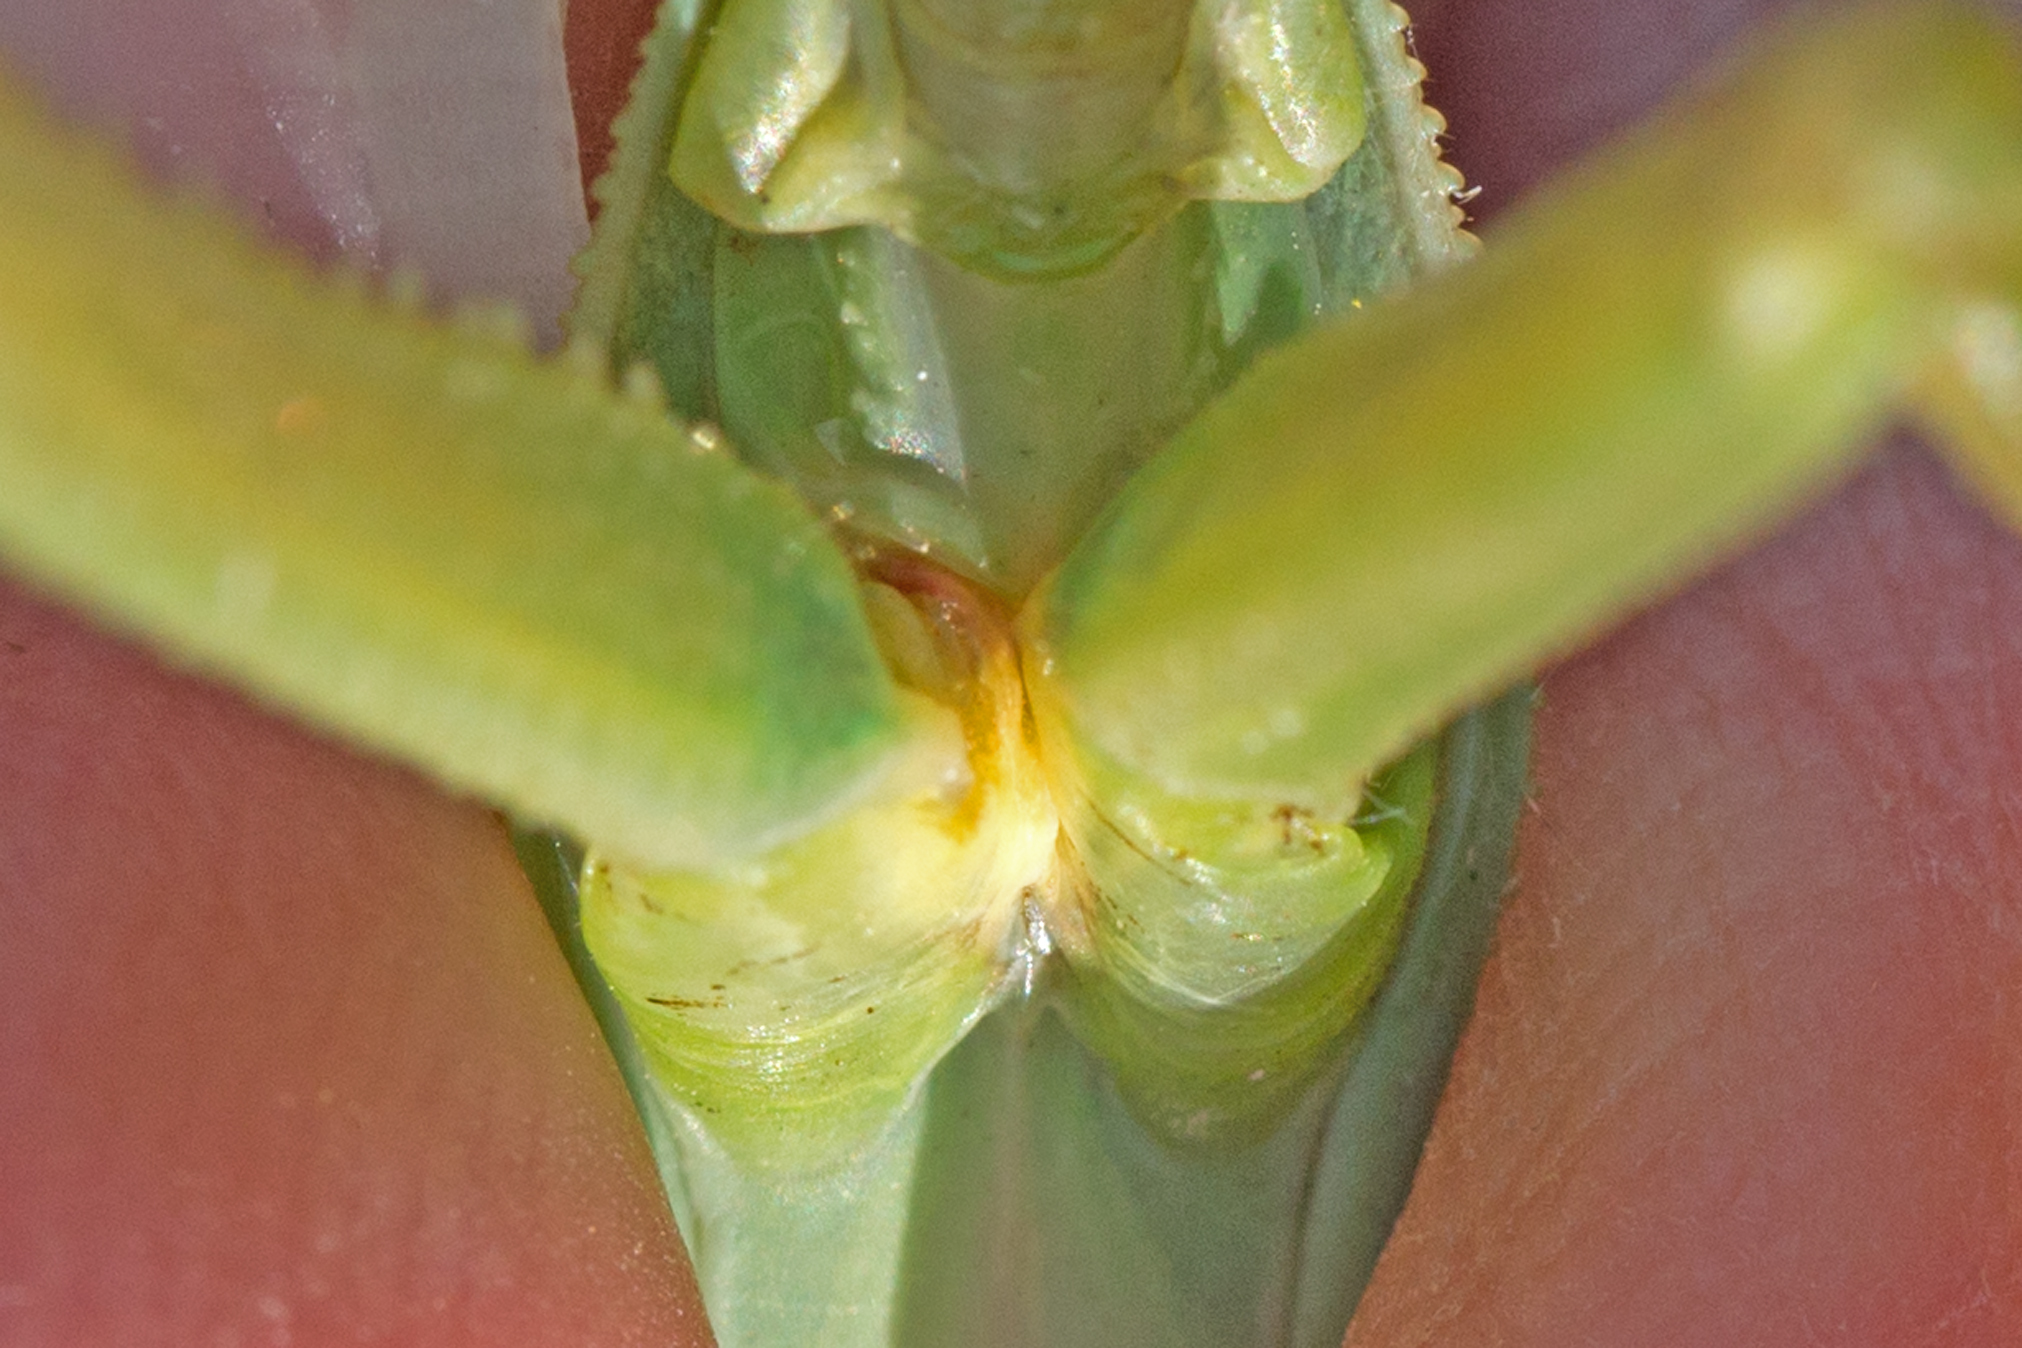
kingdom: Animalia
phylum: Arthropoda
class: Insecta
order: Mantodea
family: Mantidae
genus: Tenodera
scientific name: Tenodera sinensis
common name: Chinese mantis
